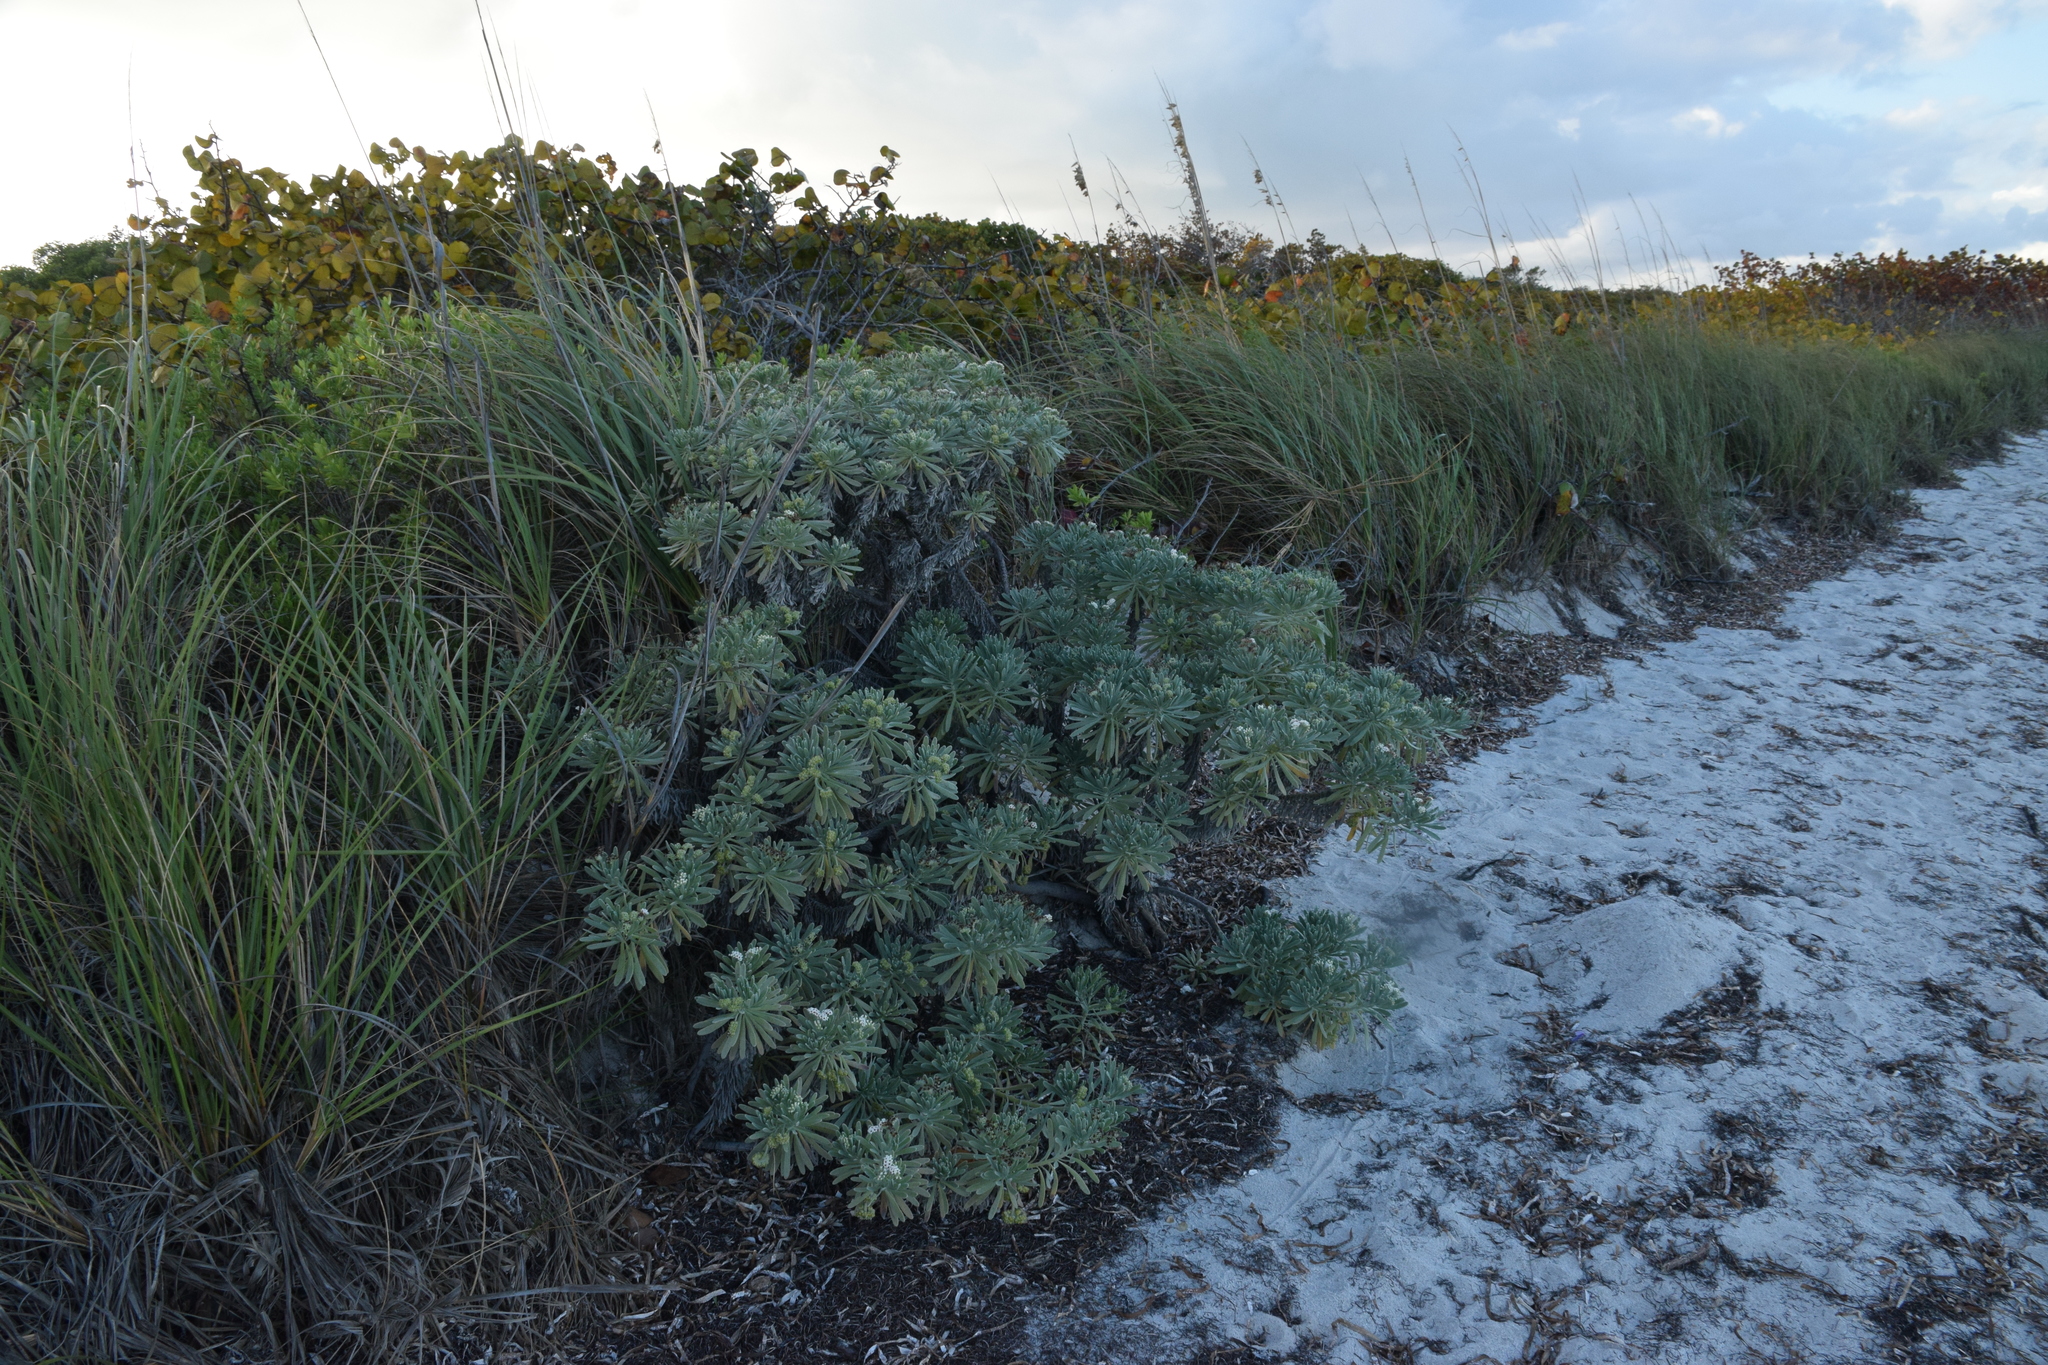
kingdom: Plantae
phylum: Tracheophyta
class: Magnoliopsida
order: Boraginales
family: Heliotropiaceae
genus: Tournefortia
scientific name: Tournefortia gnaphalodes
